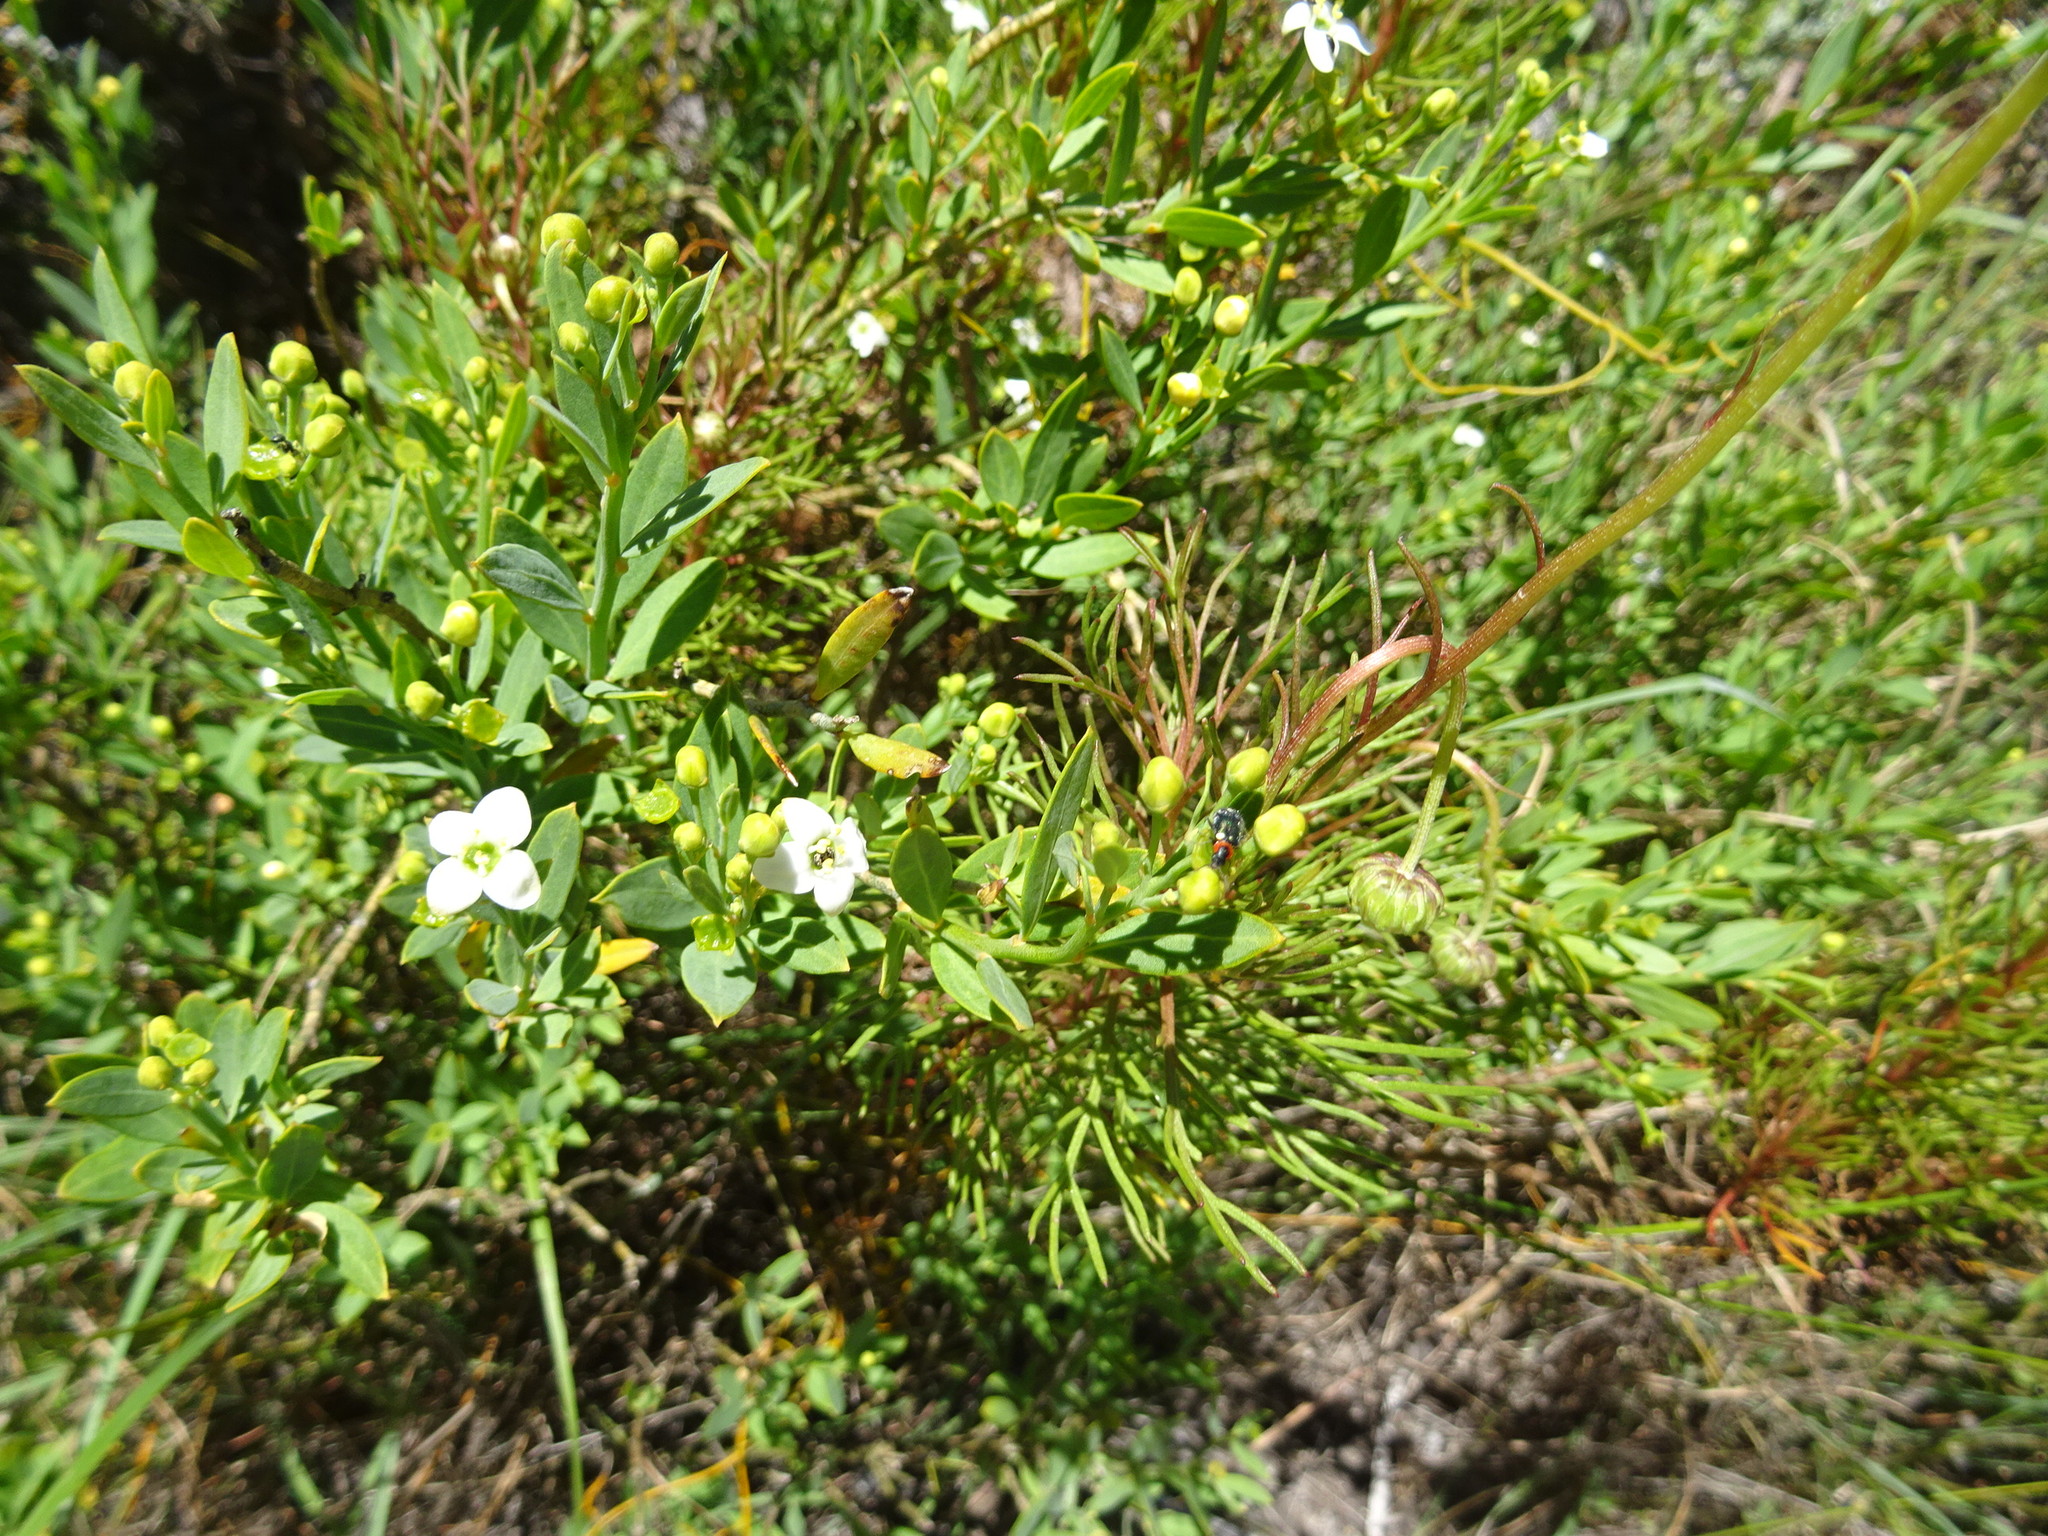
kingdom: Plantae
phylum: Tracheophyta
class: Magnoliopsida
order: Solanales
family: Montiniaceae
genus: Montinia
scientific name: Montinia caryophyllacea
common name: Wild clove-bush
